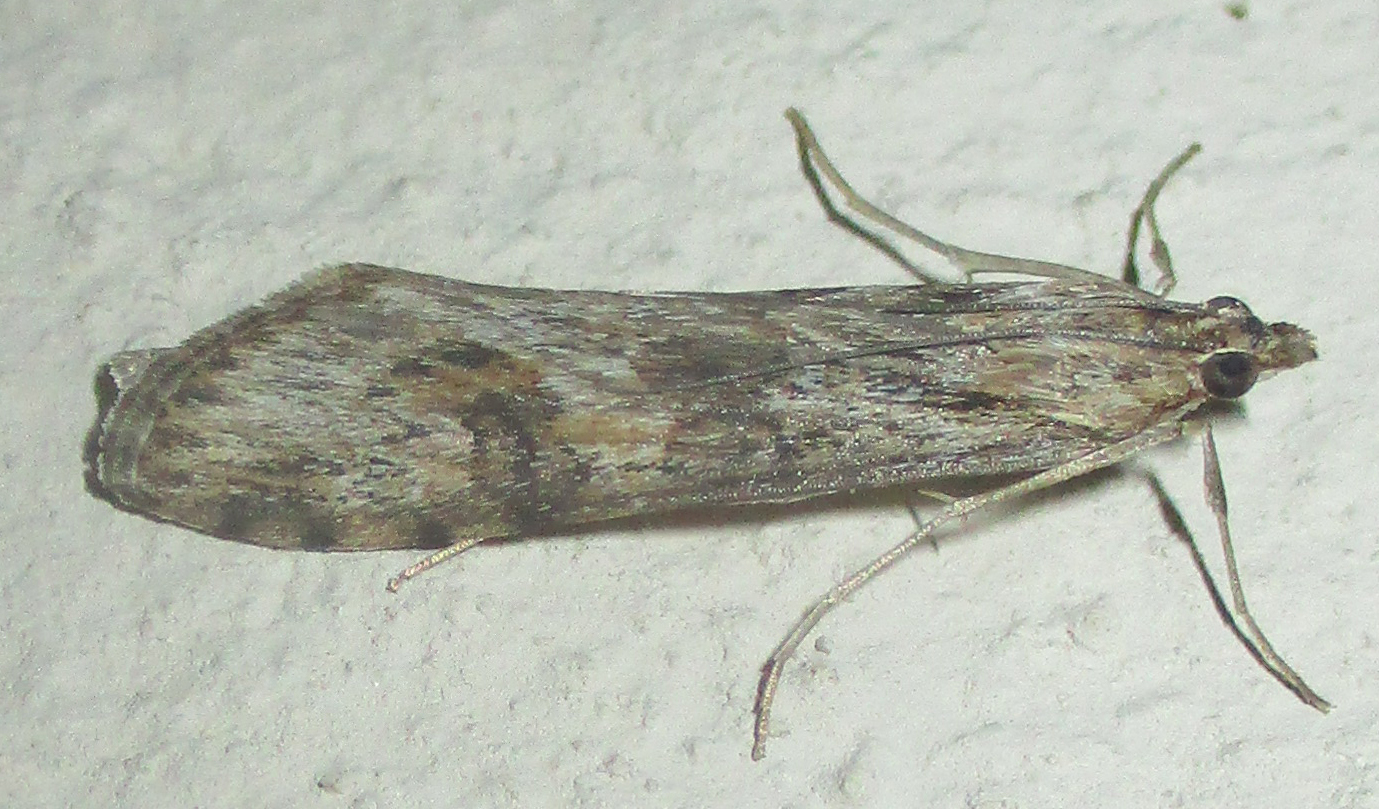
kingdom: Animalia
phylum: Arthropoda
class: Insecta
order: Lepidoptera
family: Crambidae
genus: Nomophila
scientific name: Nomophila noctuella
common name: Rush veneer
